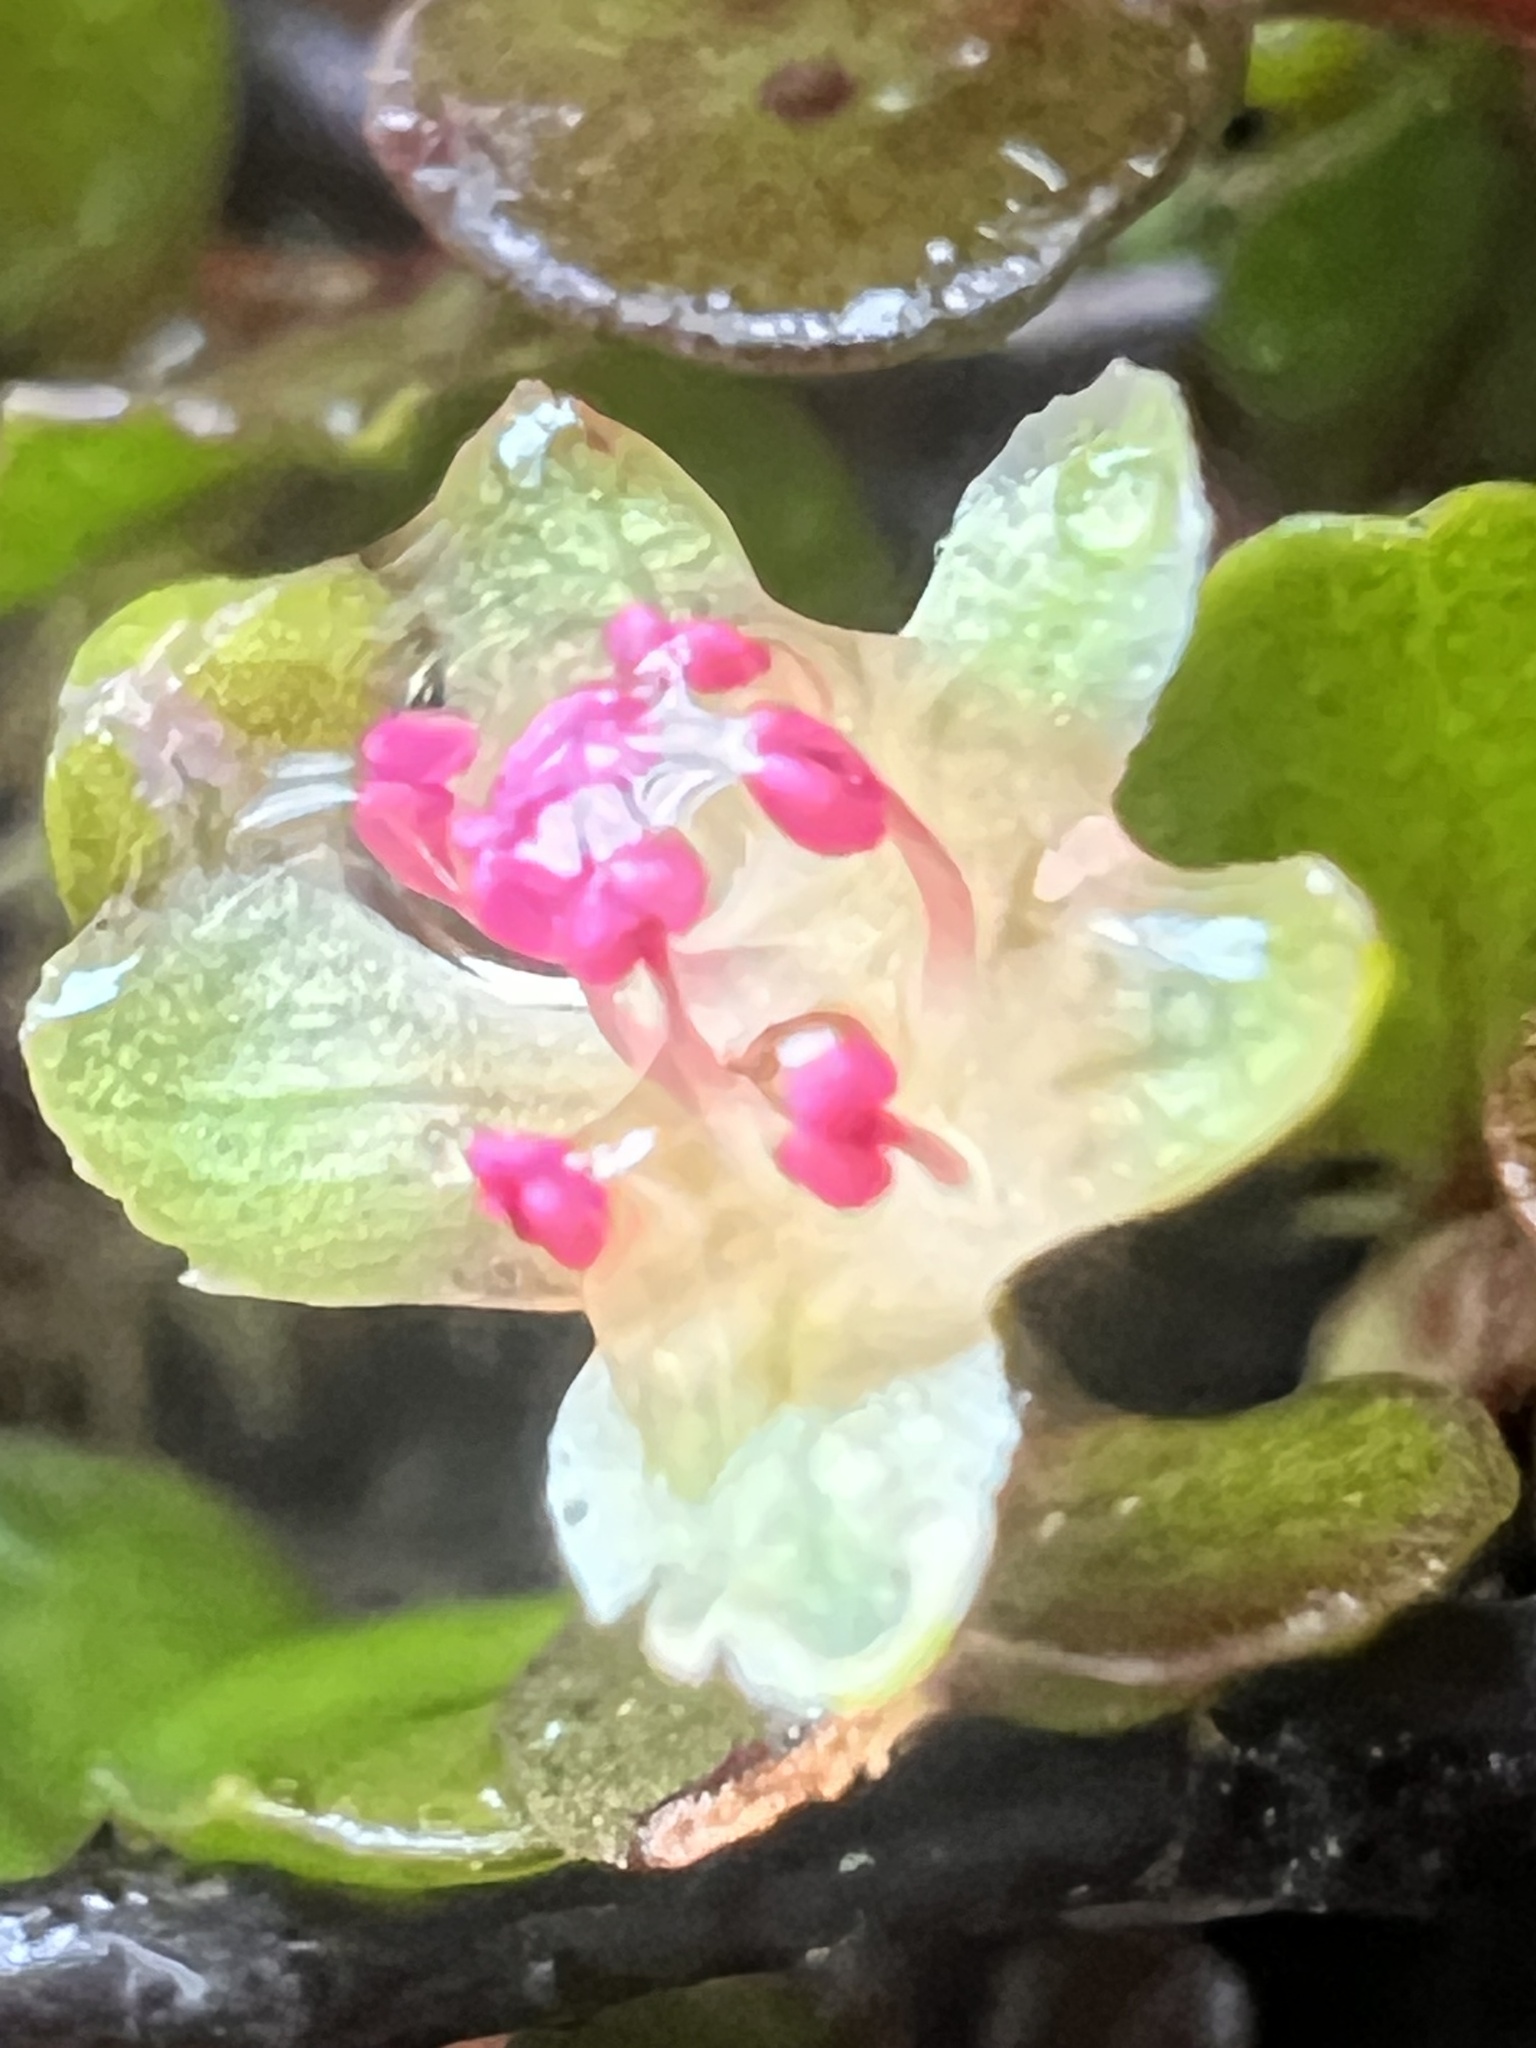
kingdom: Plantae
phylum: Tracheophyta
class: Magnoliopsida
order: Caryophyllales
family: Polygonaceae
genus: Muehlenbeckia
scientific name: Muehlenbeckia axillaris
